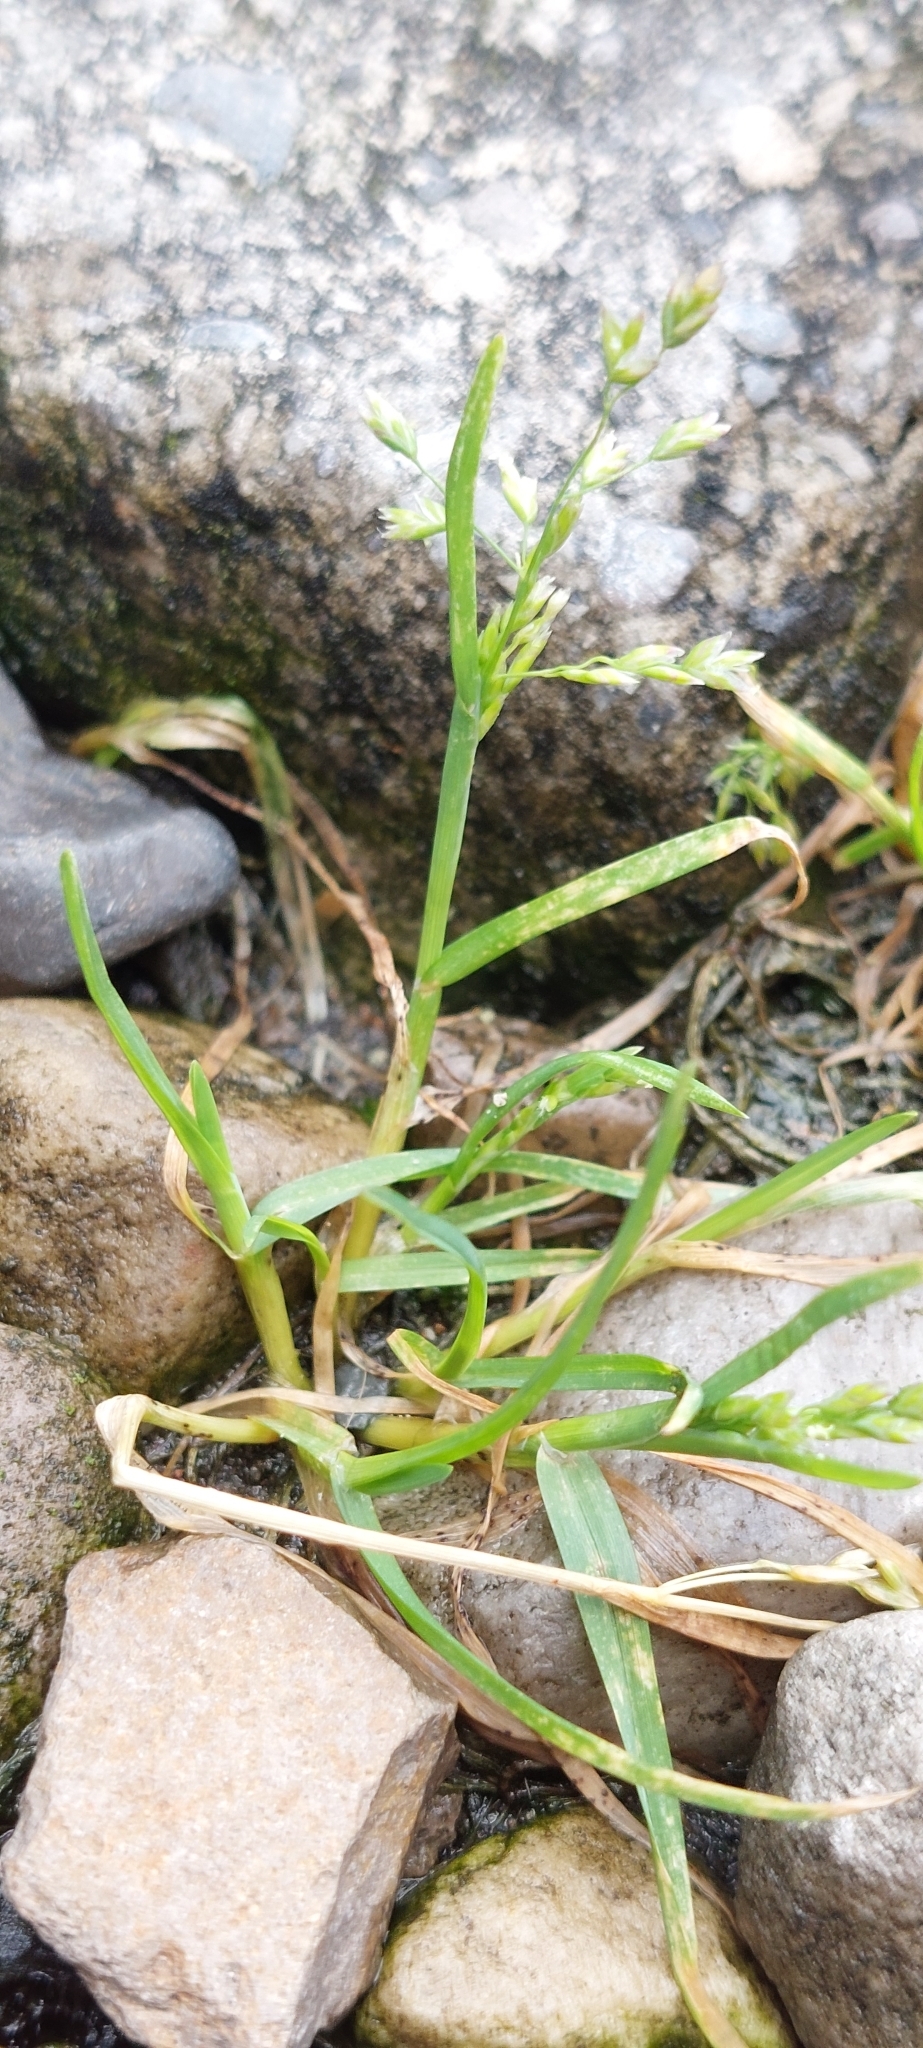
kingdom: Plantae
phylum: Tracheophyta
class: Liliopsida
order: Poales
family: Poaceae
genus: Poa
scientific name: Poa annua
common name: Annual bluegrass
